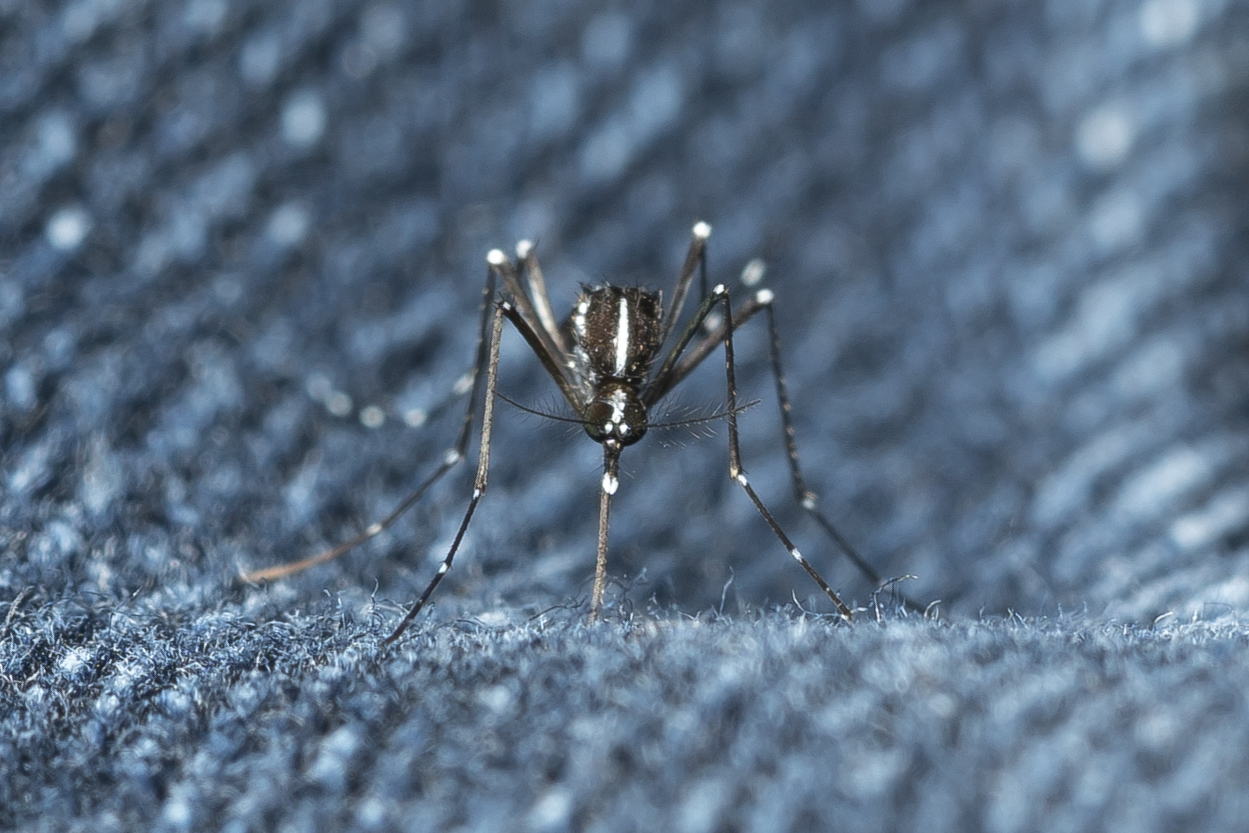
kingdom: Animalia
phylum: Arthropoda
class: Insecta
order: Diptera
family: Culicidae
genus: Aedes
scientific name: Aedes albopictus
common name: Tiger mosquito
